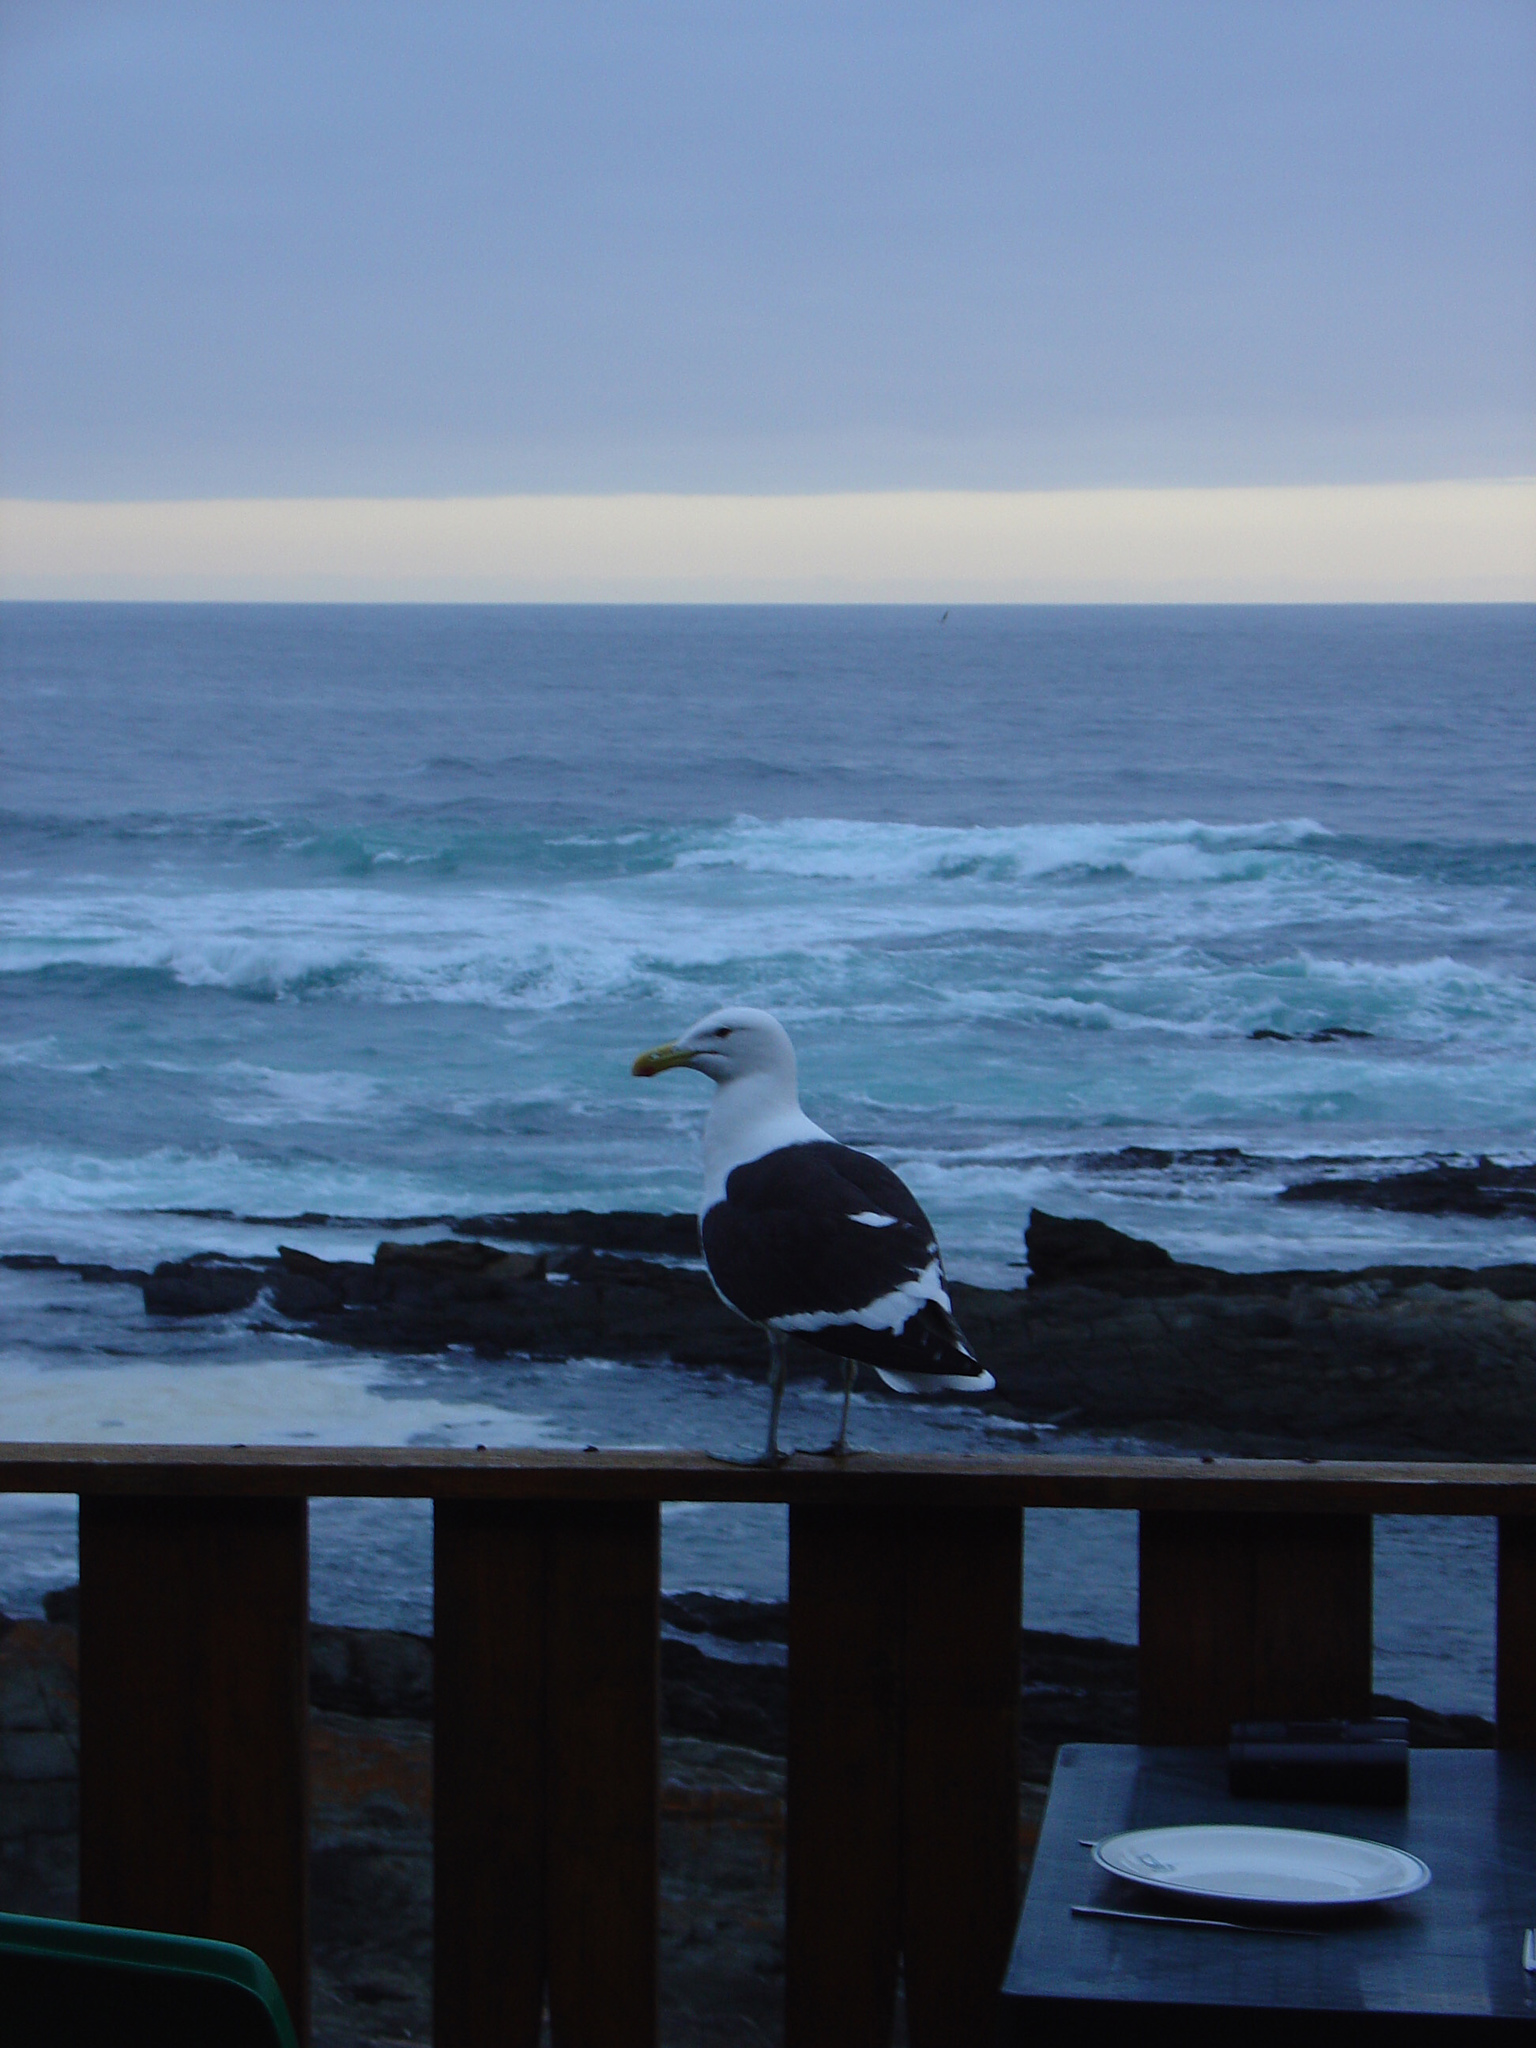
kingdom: Animalia
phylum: Chordata
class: Aves
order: Charadriiformes
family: Laridae
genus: Larus
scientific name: Larus dominicanus
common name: Kelp gull
